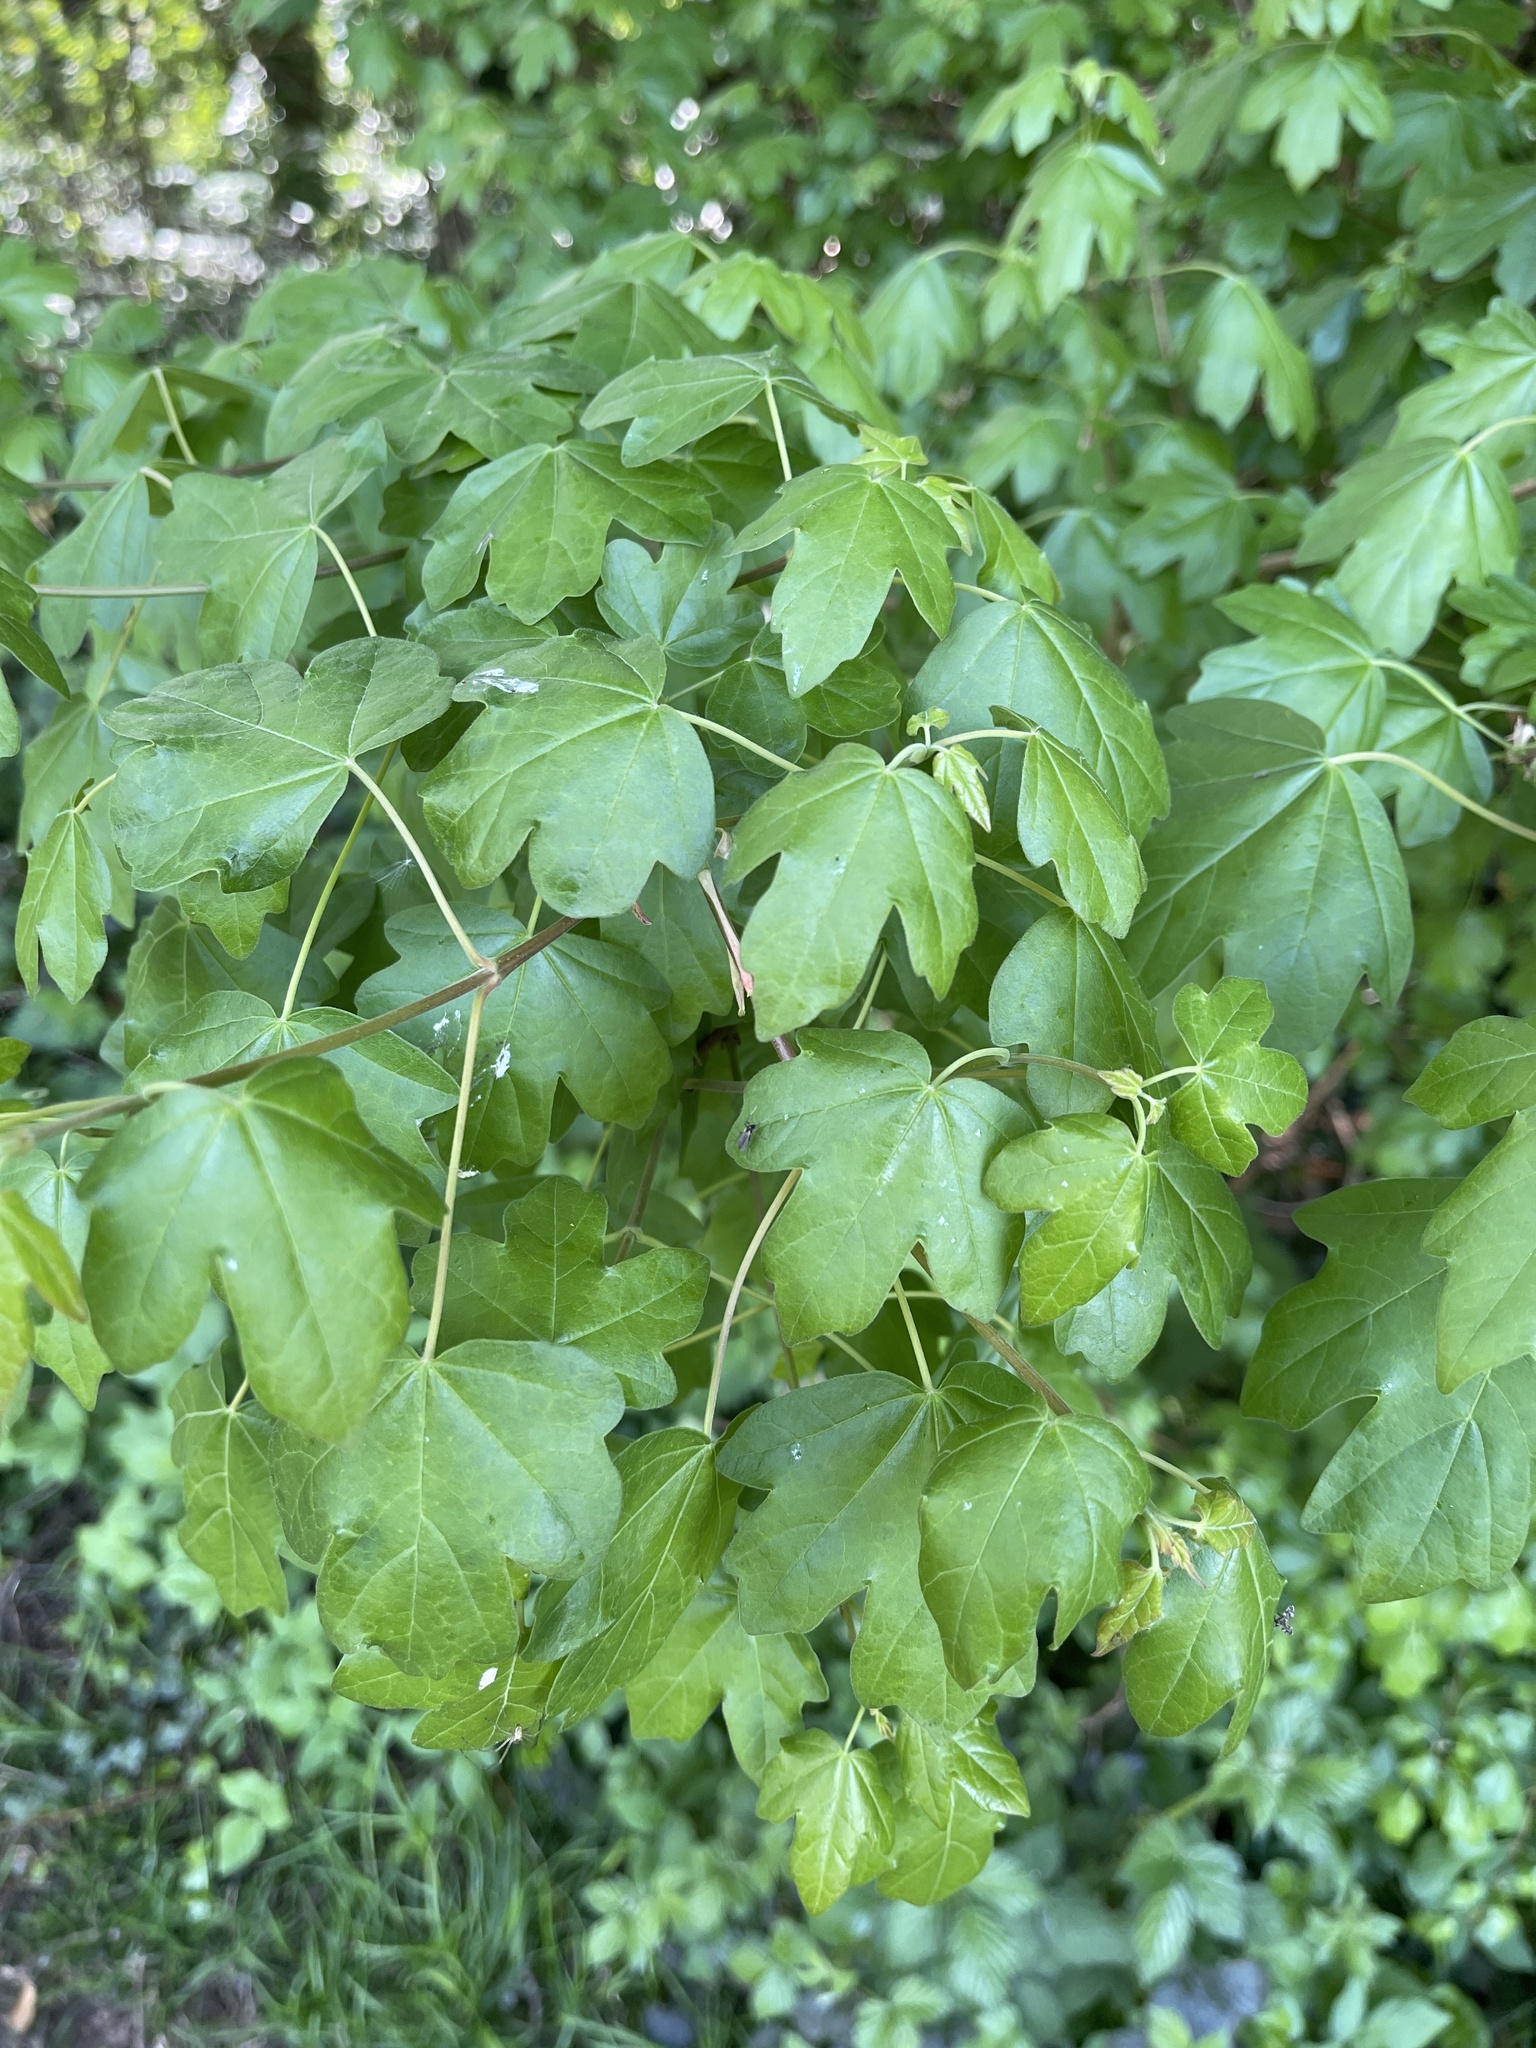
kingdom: Plantae
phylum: Tracheophyta
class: Magnoliopsida
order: Sapindales
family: Sapindaceae
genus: Acer
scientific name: Acer campestre
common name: Field maple
